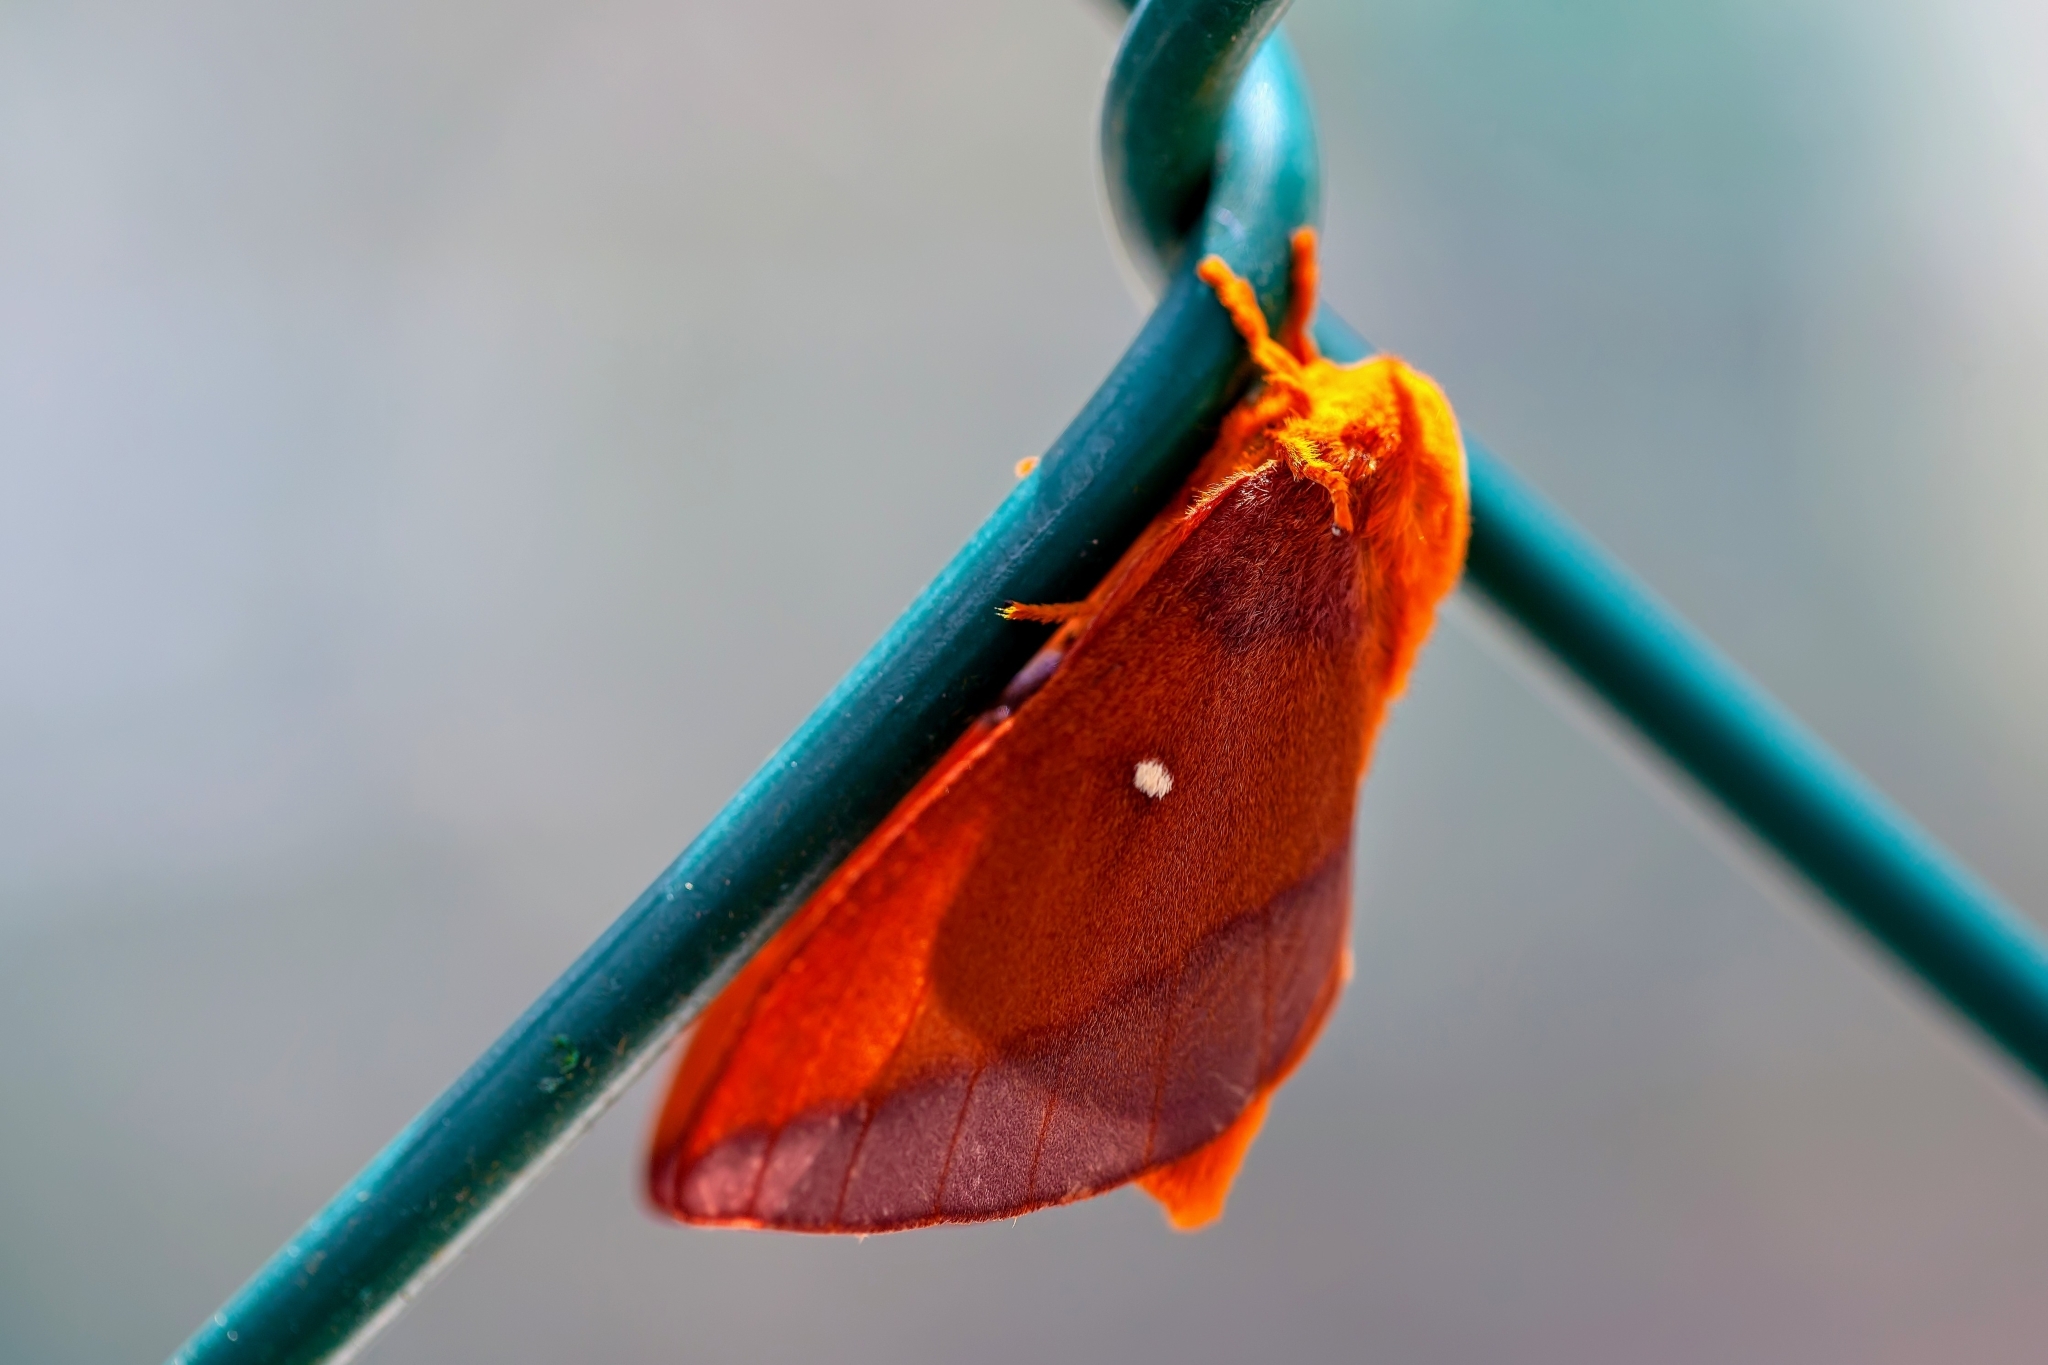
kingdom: Animalia
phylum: Arthropoda
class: Insecta
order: Lepidoptera
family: Saturniidae
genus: Anisota
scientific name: Anisota virginiensis
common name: Pink striped oakworm moth
